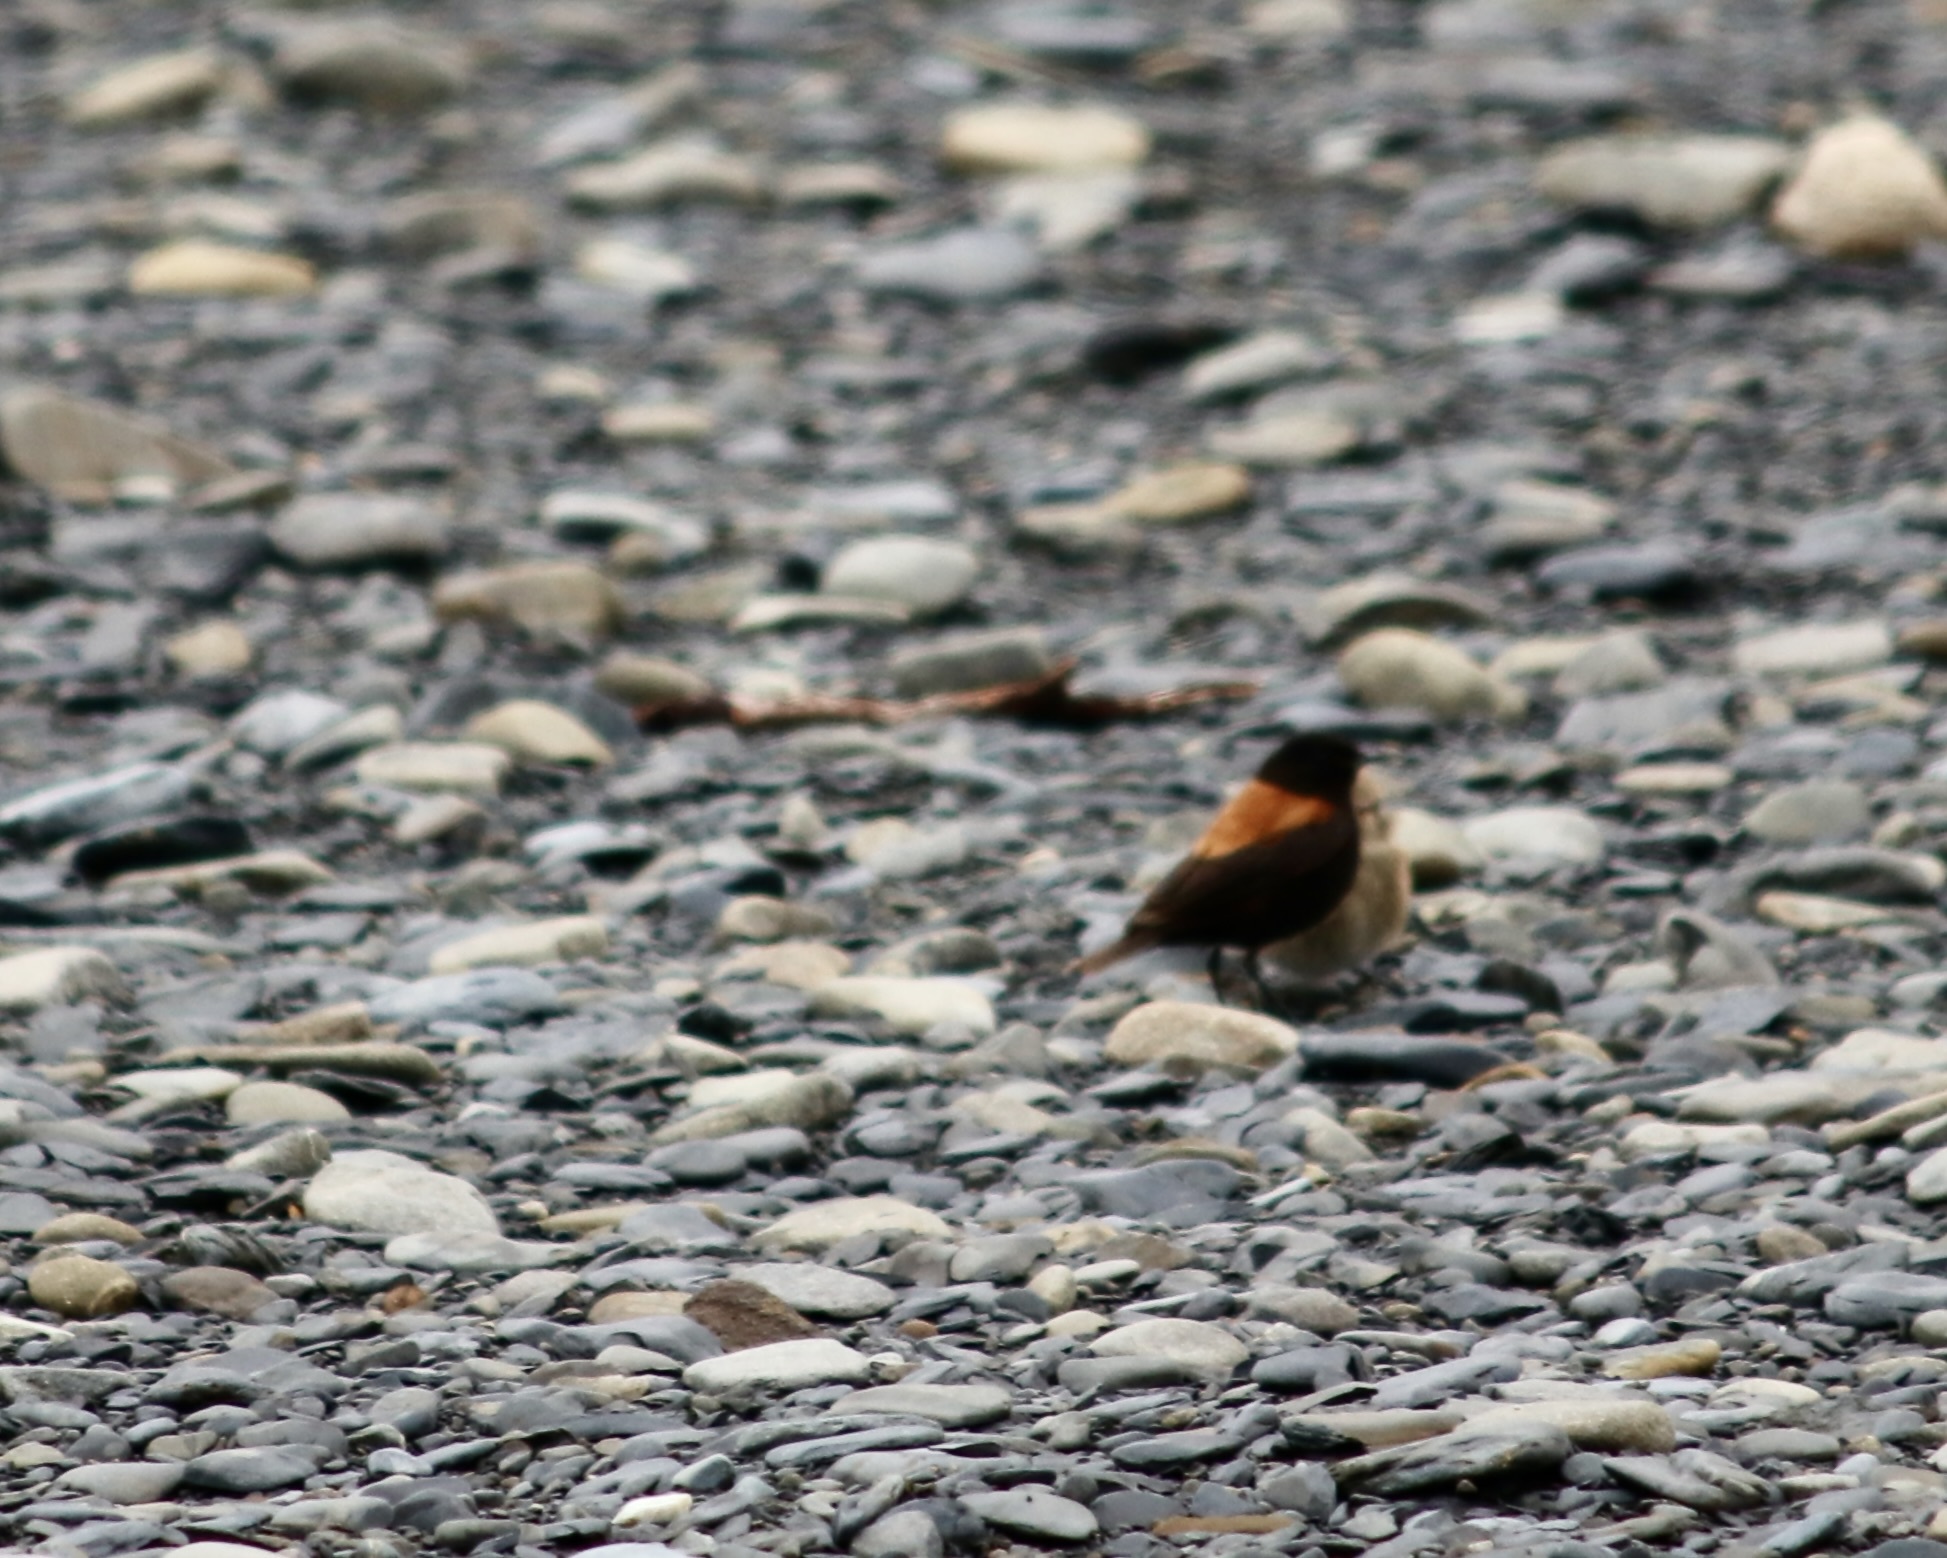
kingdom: Animalia
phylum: Chordata
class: Aves
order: Passeriformes
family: Tyrannidae
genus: Lessonia
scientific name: Lessonia rufa
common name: Austral negrito
